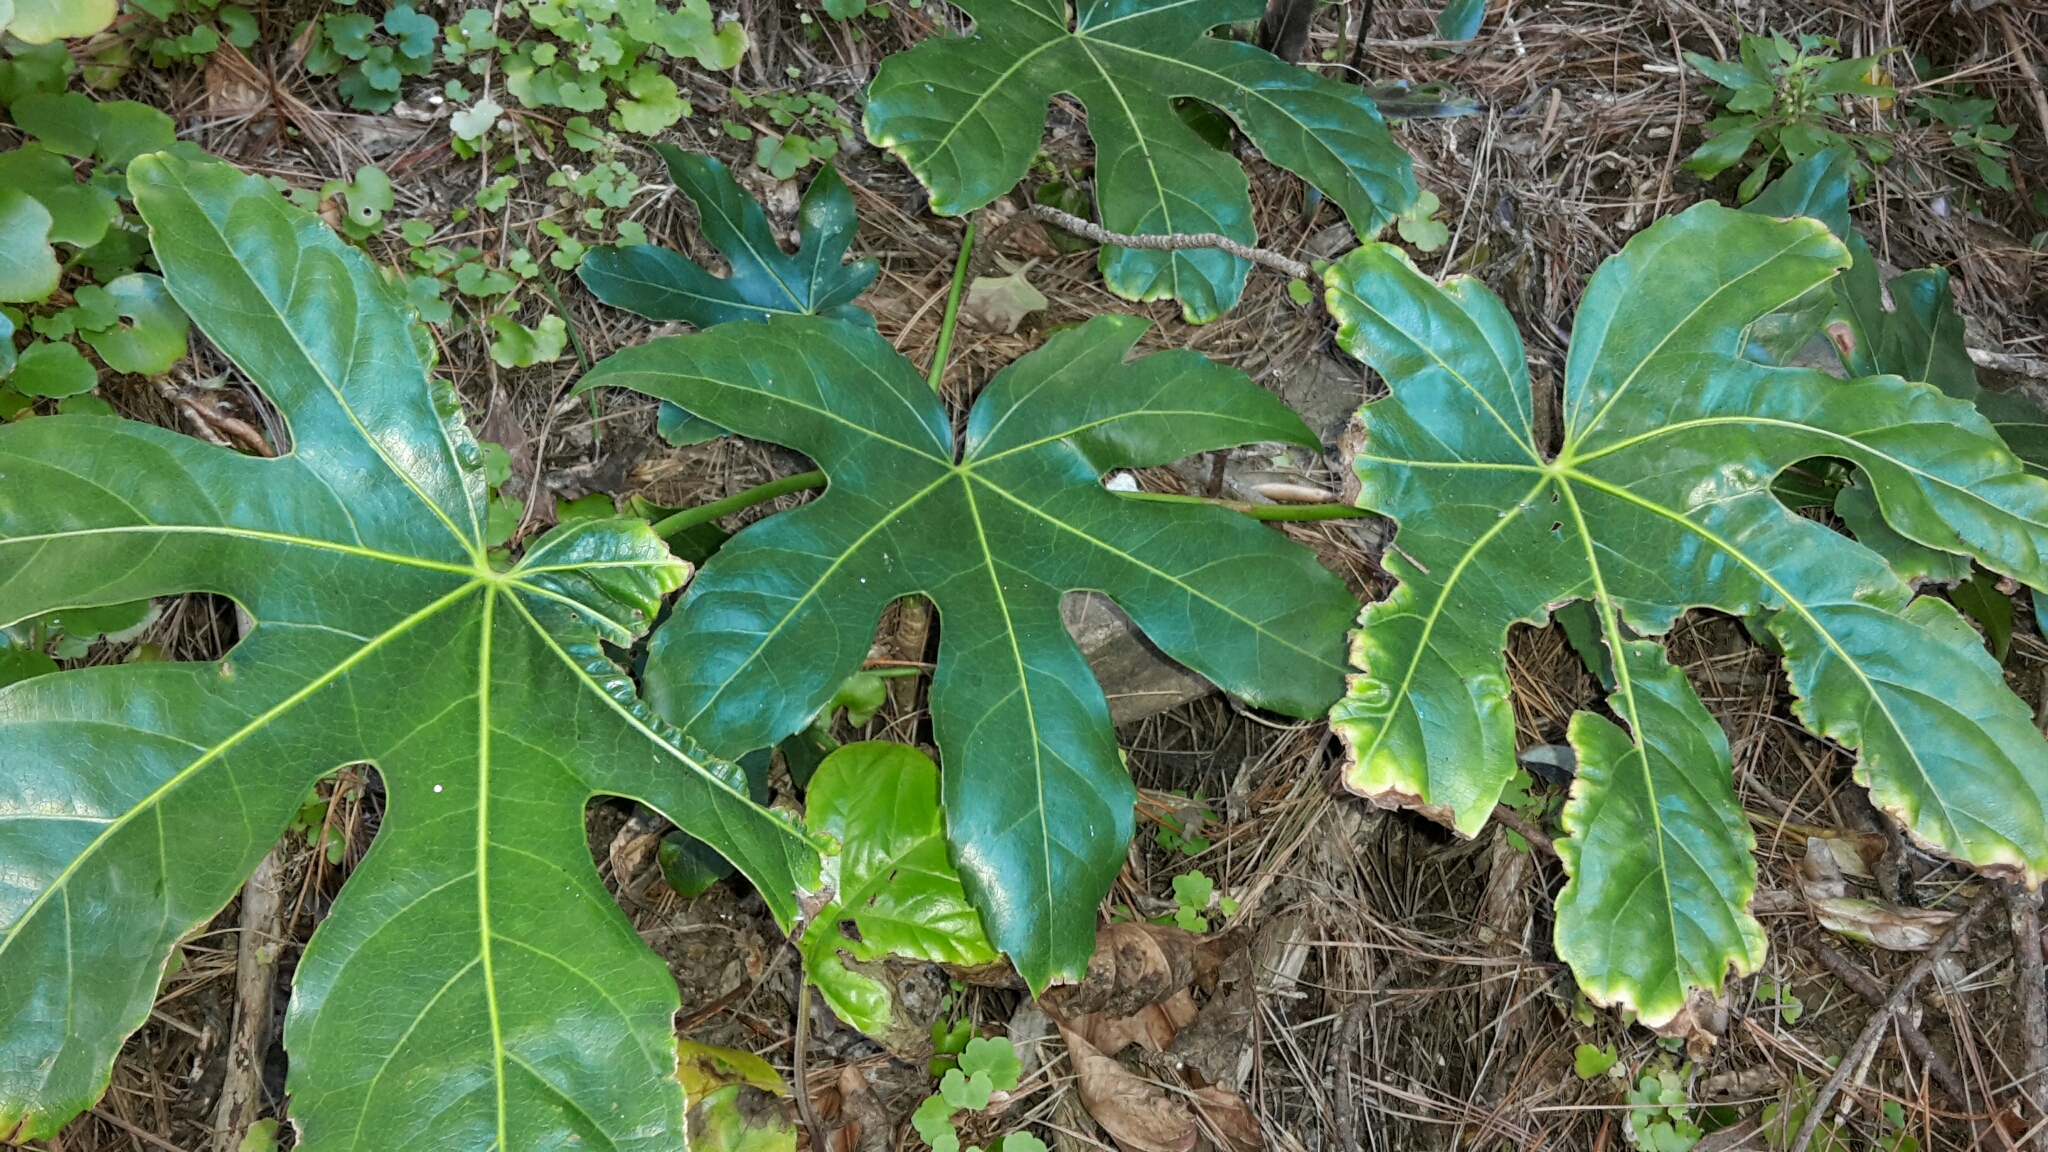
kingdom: Plantae
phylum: Tracheophyta
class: Magnoliopsida
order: Apiales
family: Araliaceae
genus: Fatsia
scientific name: Fatsia japonica
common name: Fatsia
